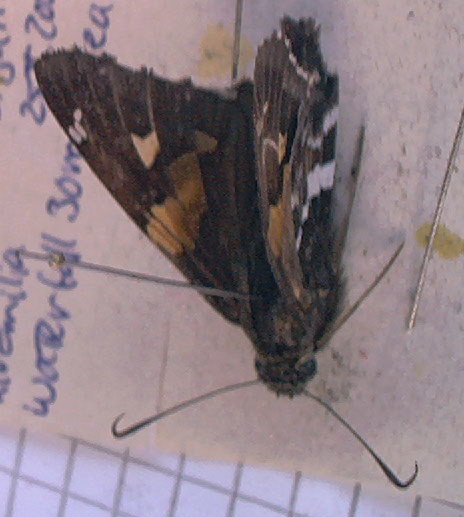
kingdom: Animalia
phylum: Arthropoda
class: Insecta
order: Lepidoptera
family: Hesperiidae
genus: Epargyreus
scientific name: Epargyreus barisses
